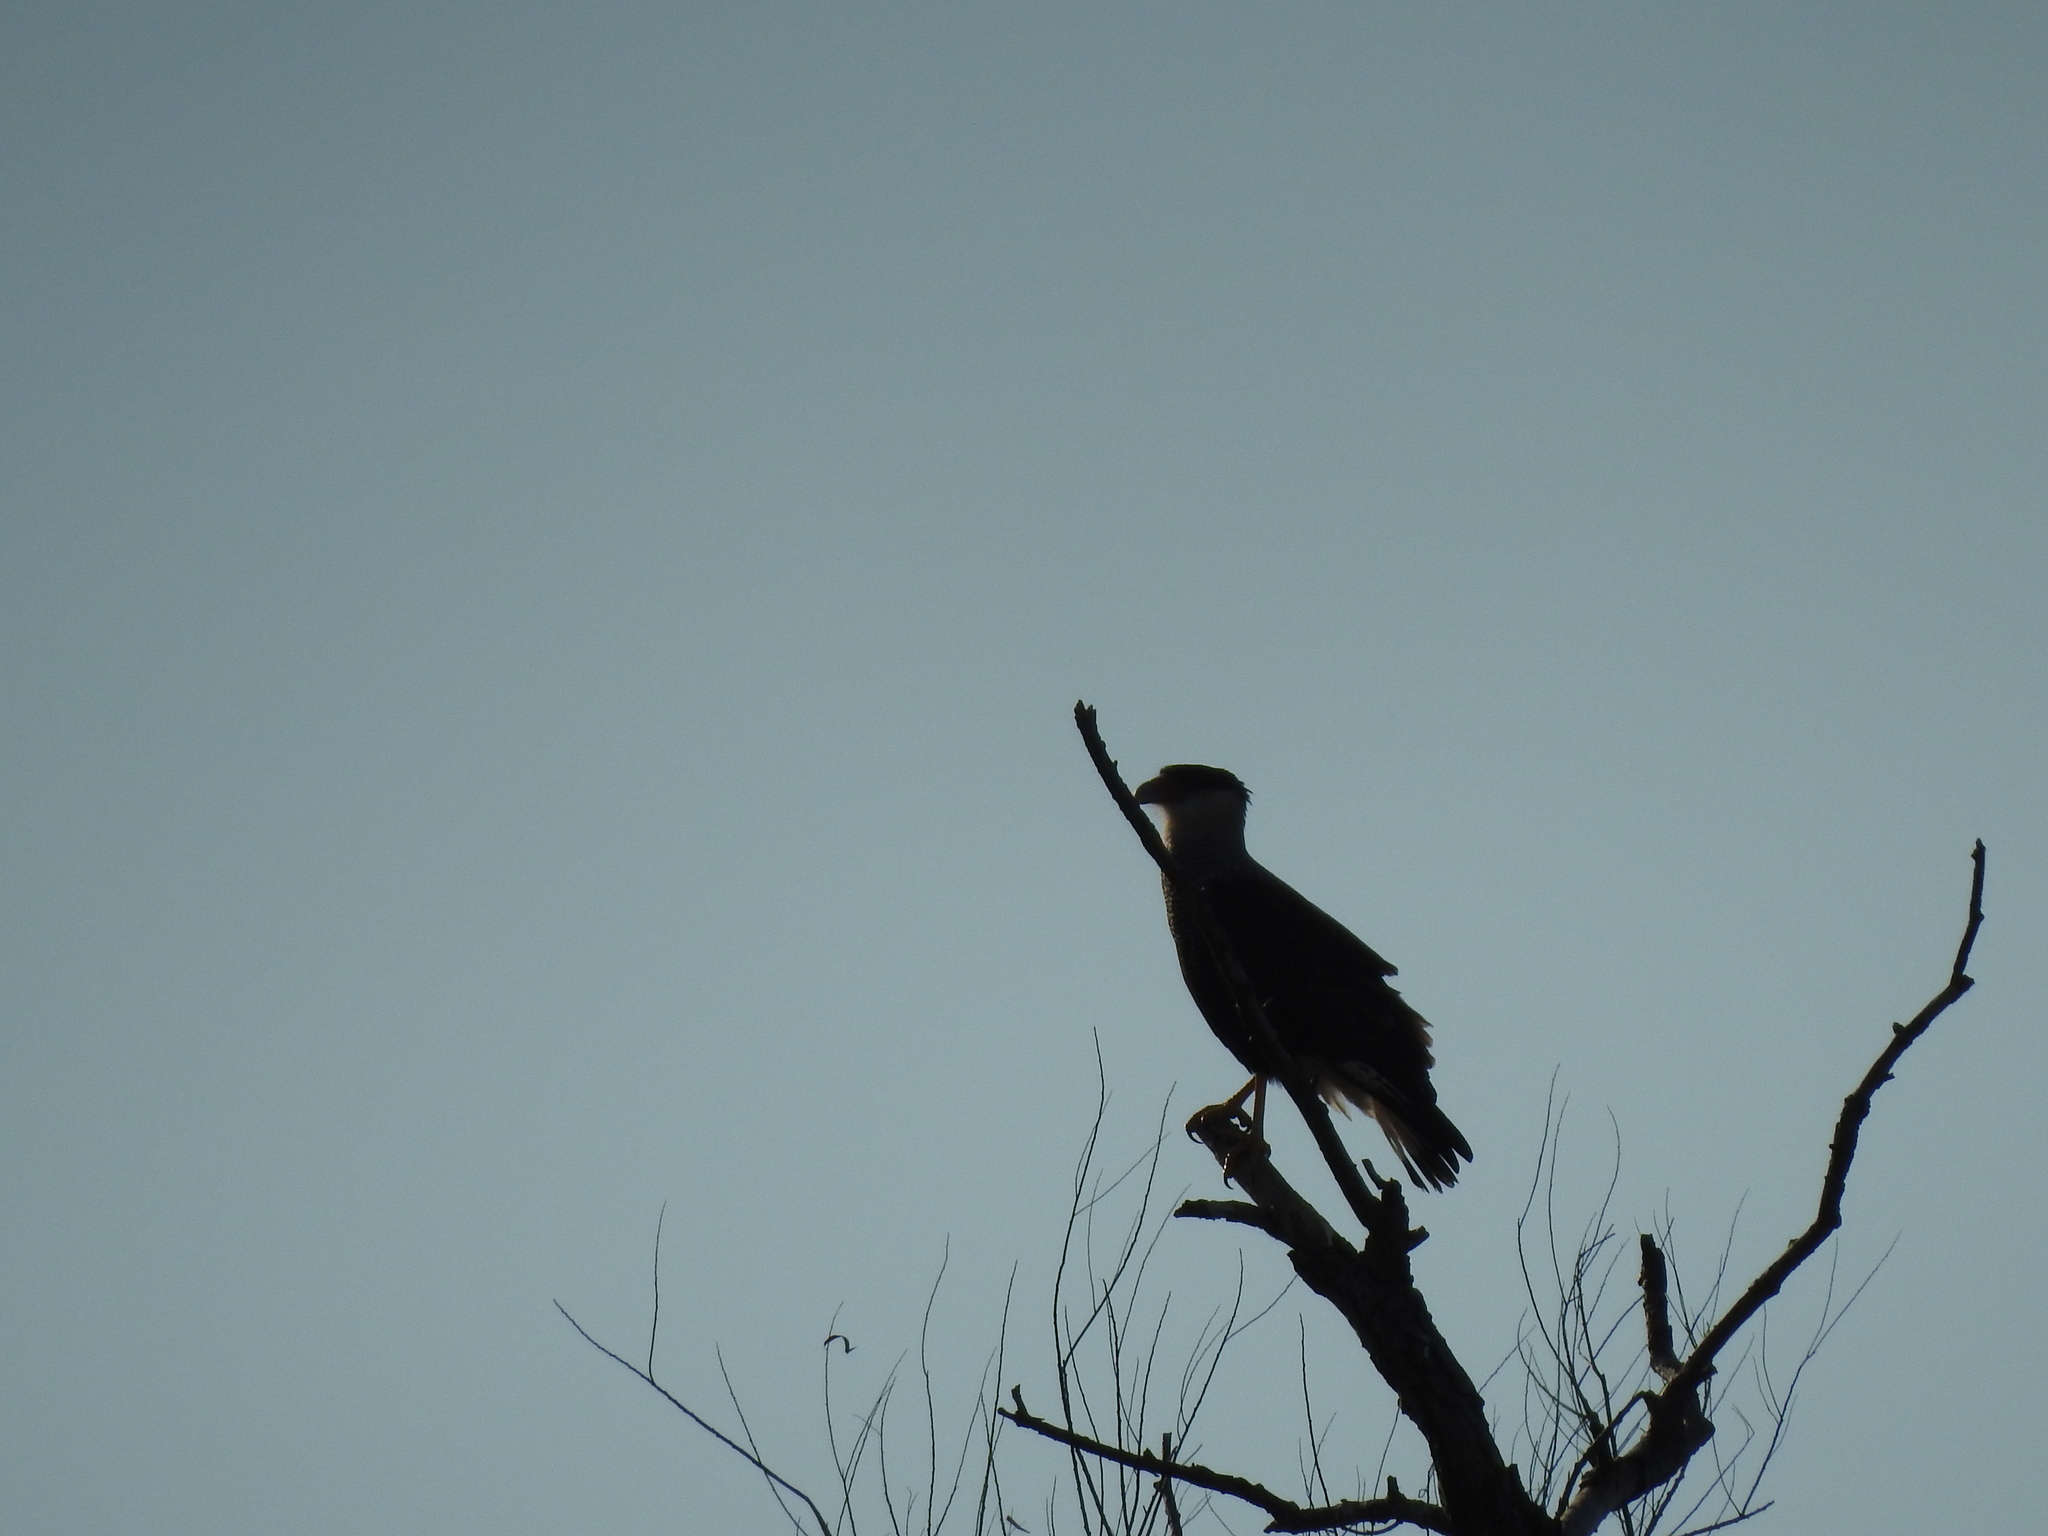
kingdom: Animalia
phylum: Chordata
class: Aves
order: Falconiformes
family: Falconidae
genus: Caracara
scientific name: Caracara plancus
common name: Southern caracara
